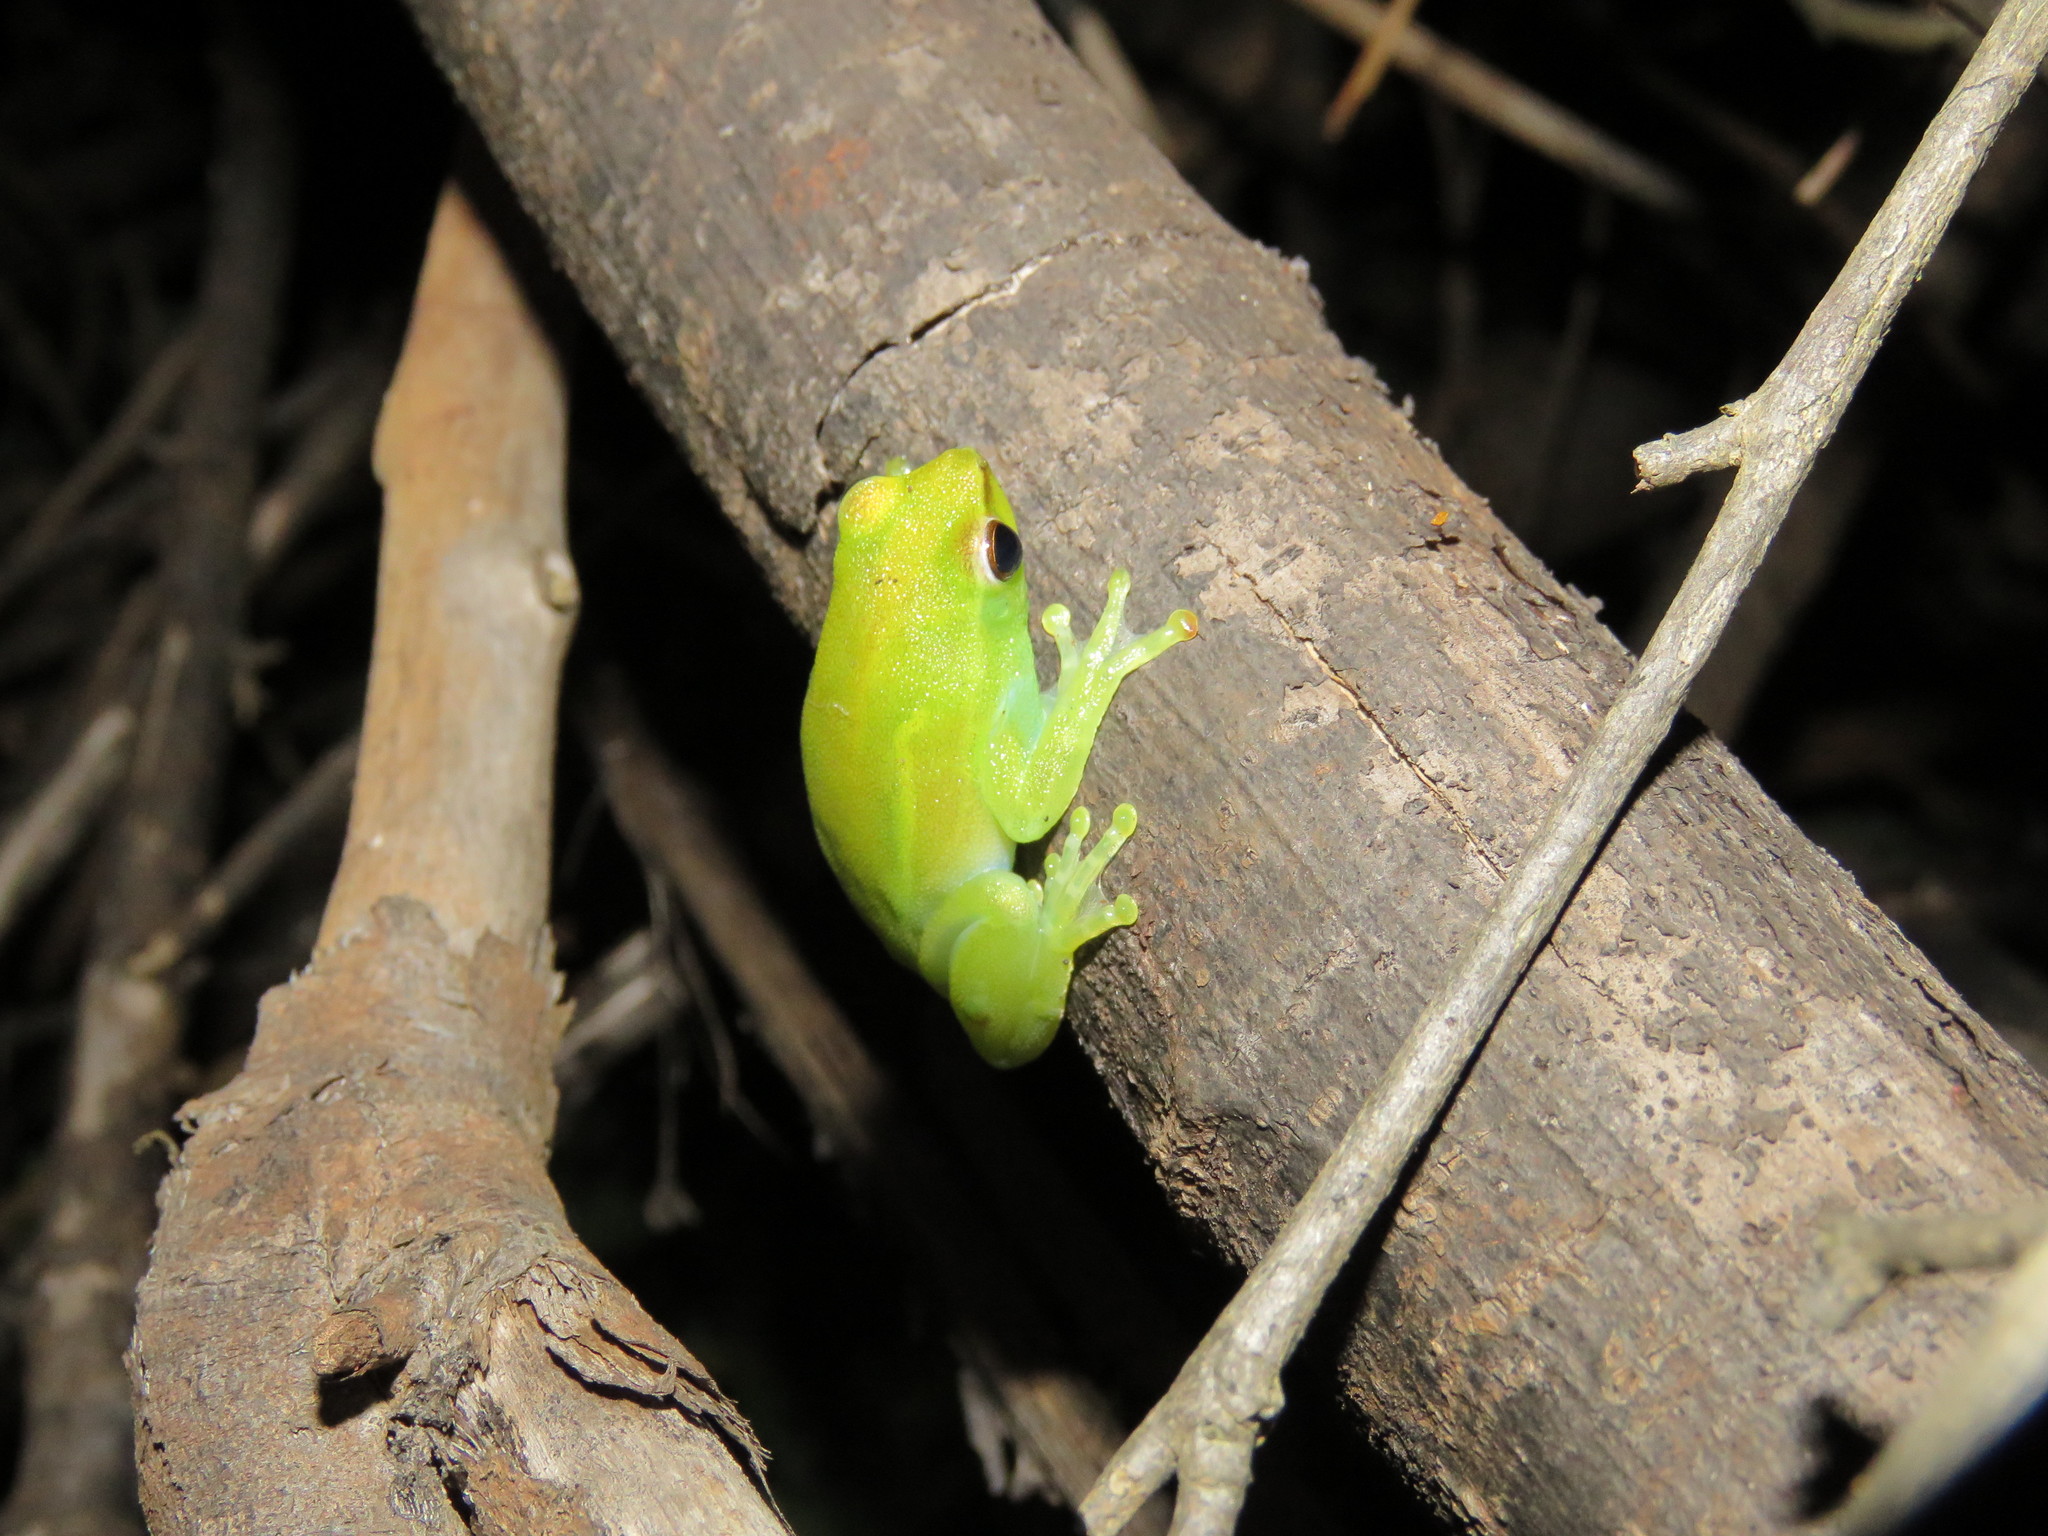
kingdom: Animalia
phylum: Chordata
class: Amphibia
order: Anura
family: Hylidae
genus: Sphaenorhynchus
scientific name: Sphaenorhynchus lacteus
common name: Orinoco lime treefrog
